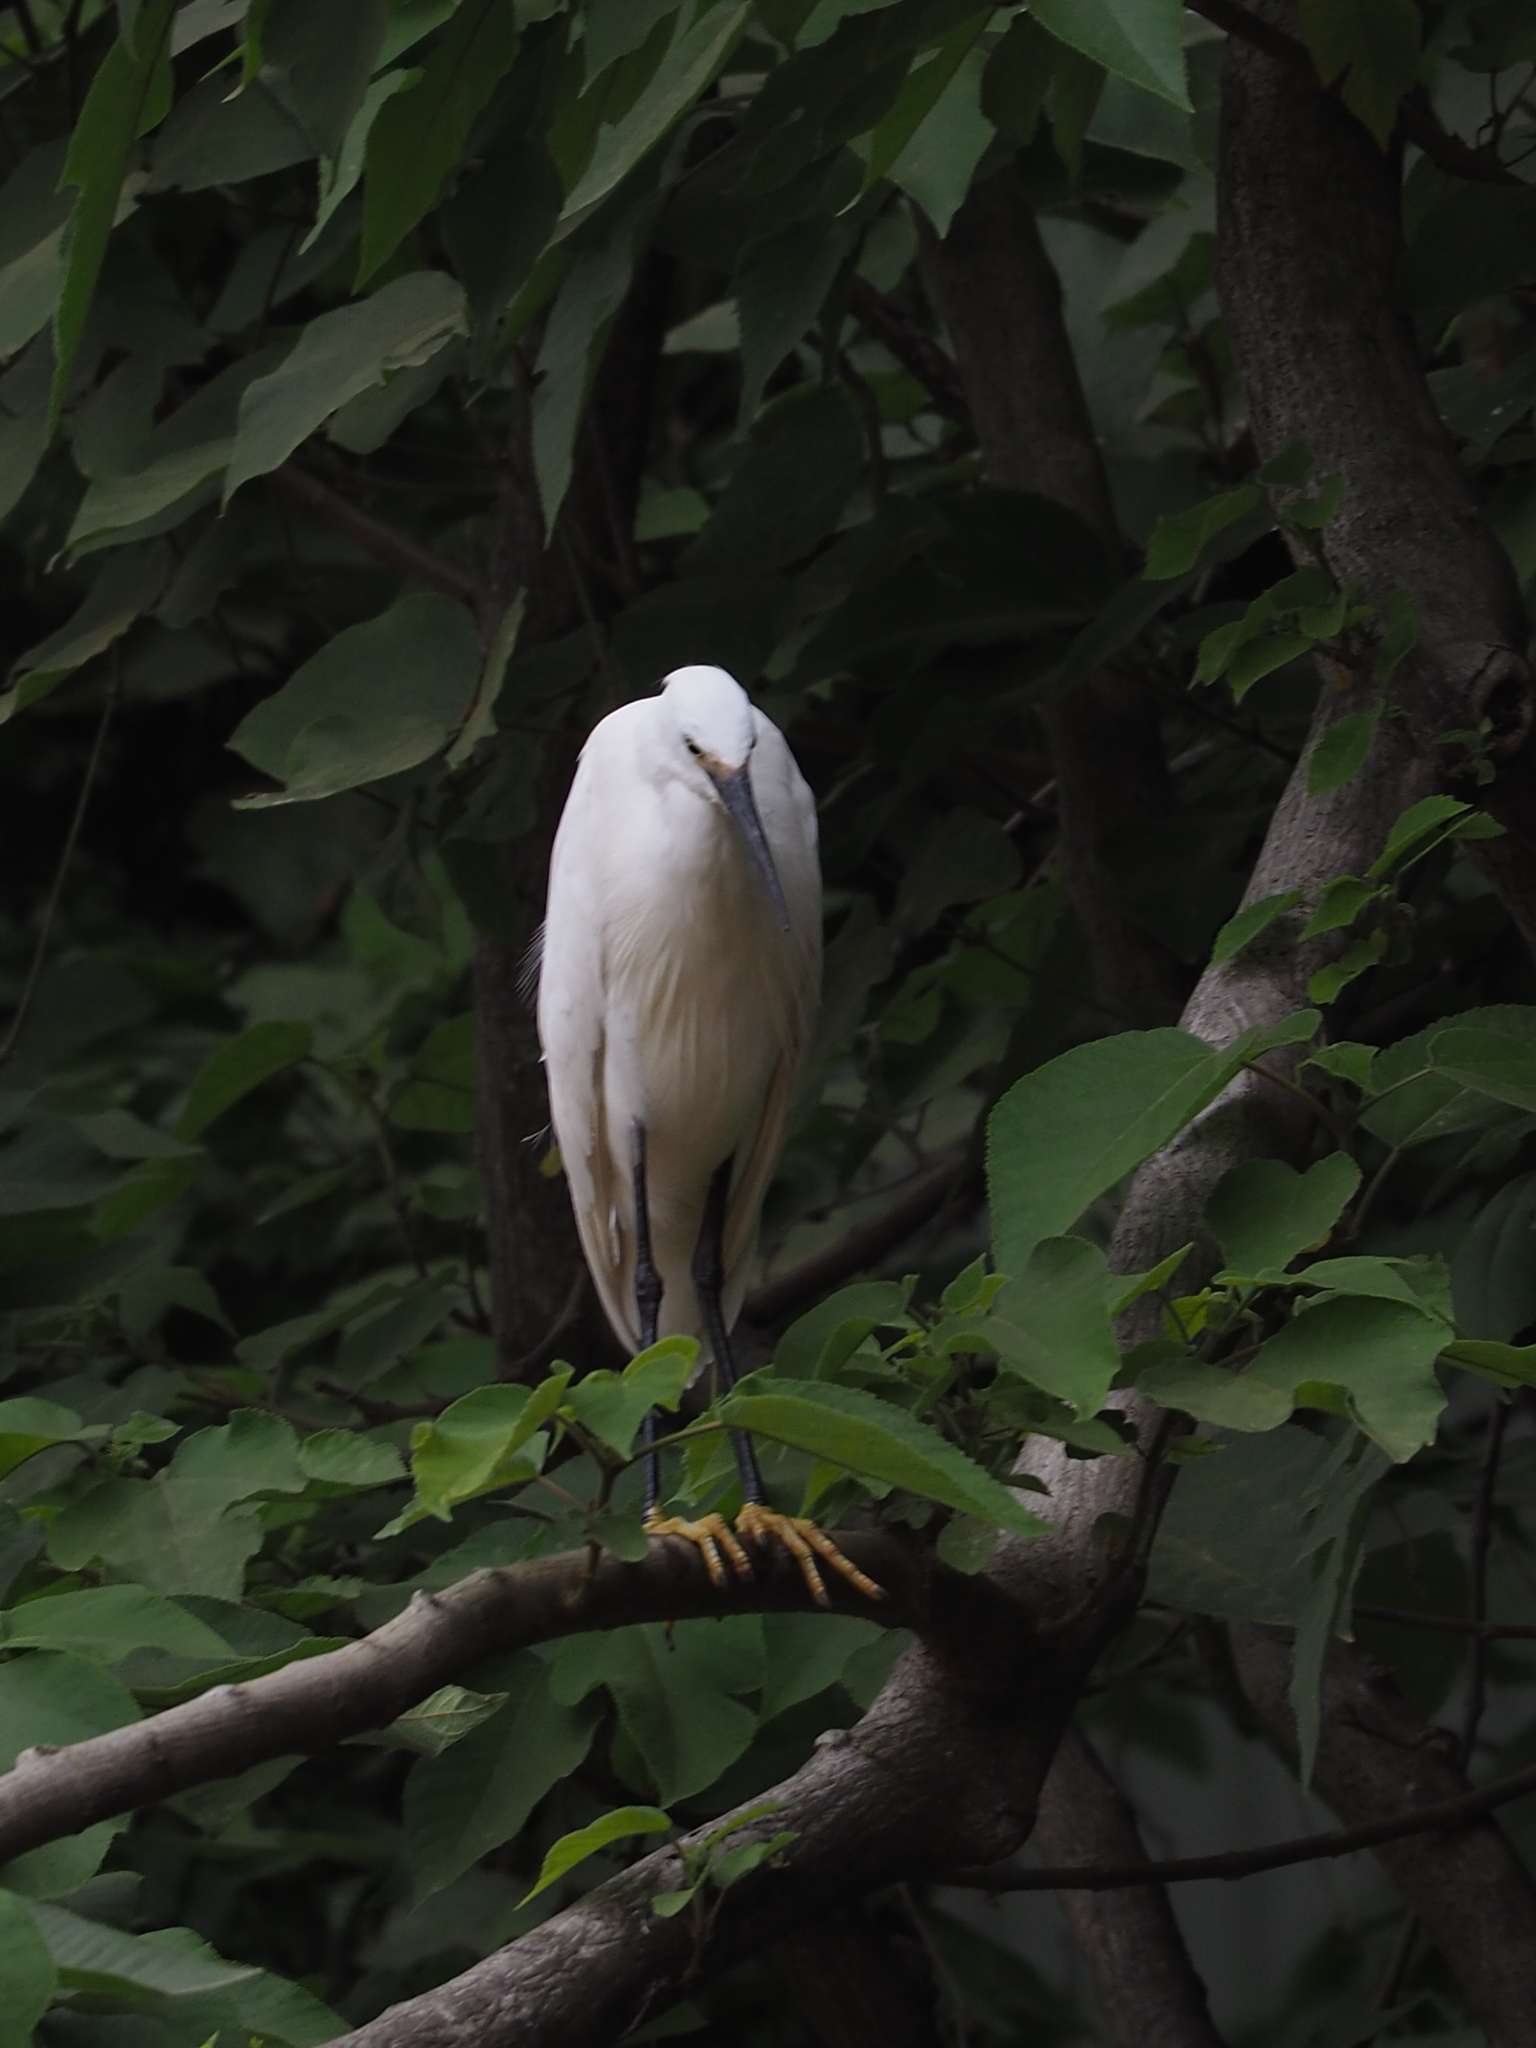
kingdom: Animalia
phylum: Chordata
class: Aves
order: Pelecaniformes
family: Ardeidae
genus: Egretta
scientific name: Egretta garzetta
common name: Little egret
